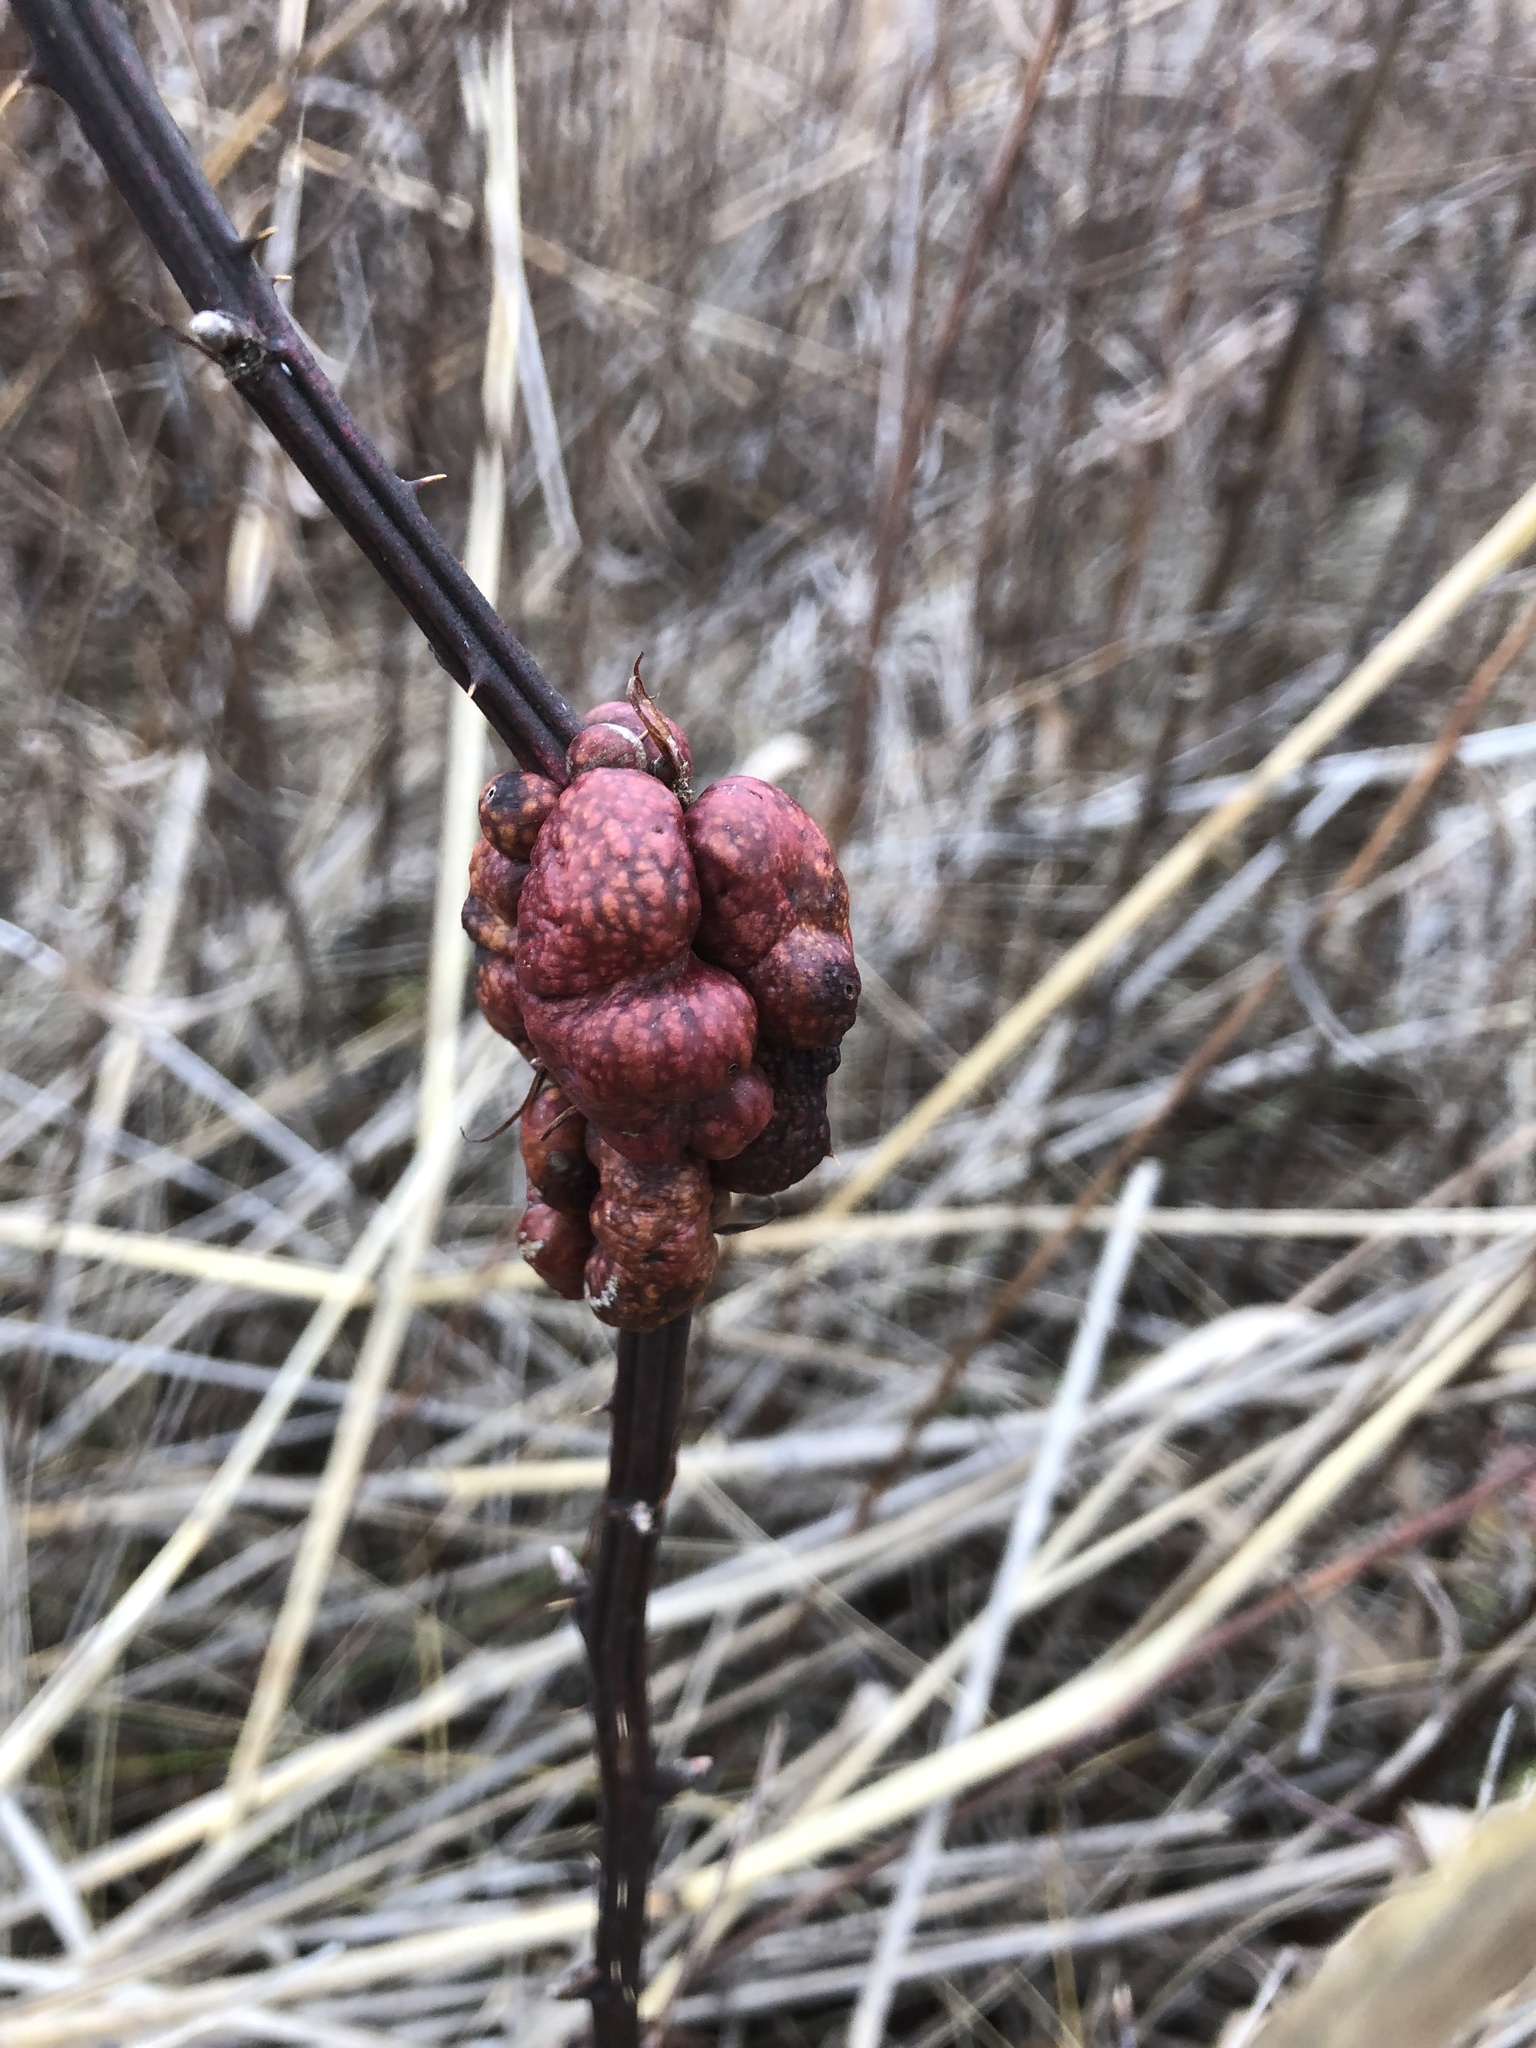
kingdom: Animalia
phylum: Arthropoda
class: Insecta
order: Hymenoptera
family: Cynipidae
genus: Diastrophus
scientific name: Diastrophus
